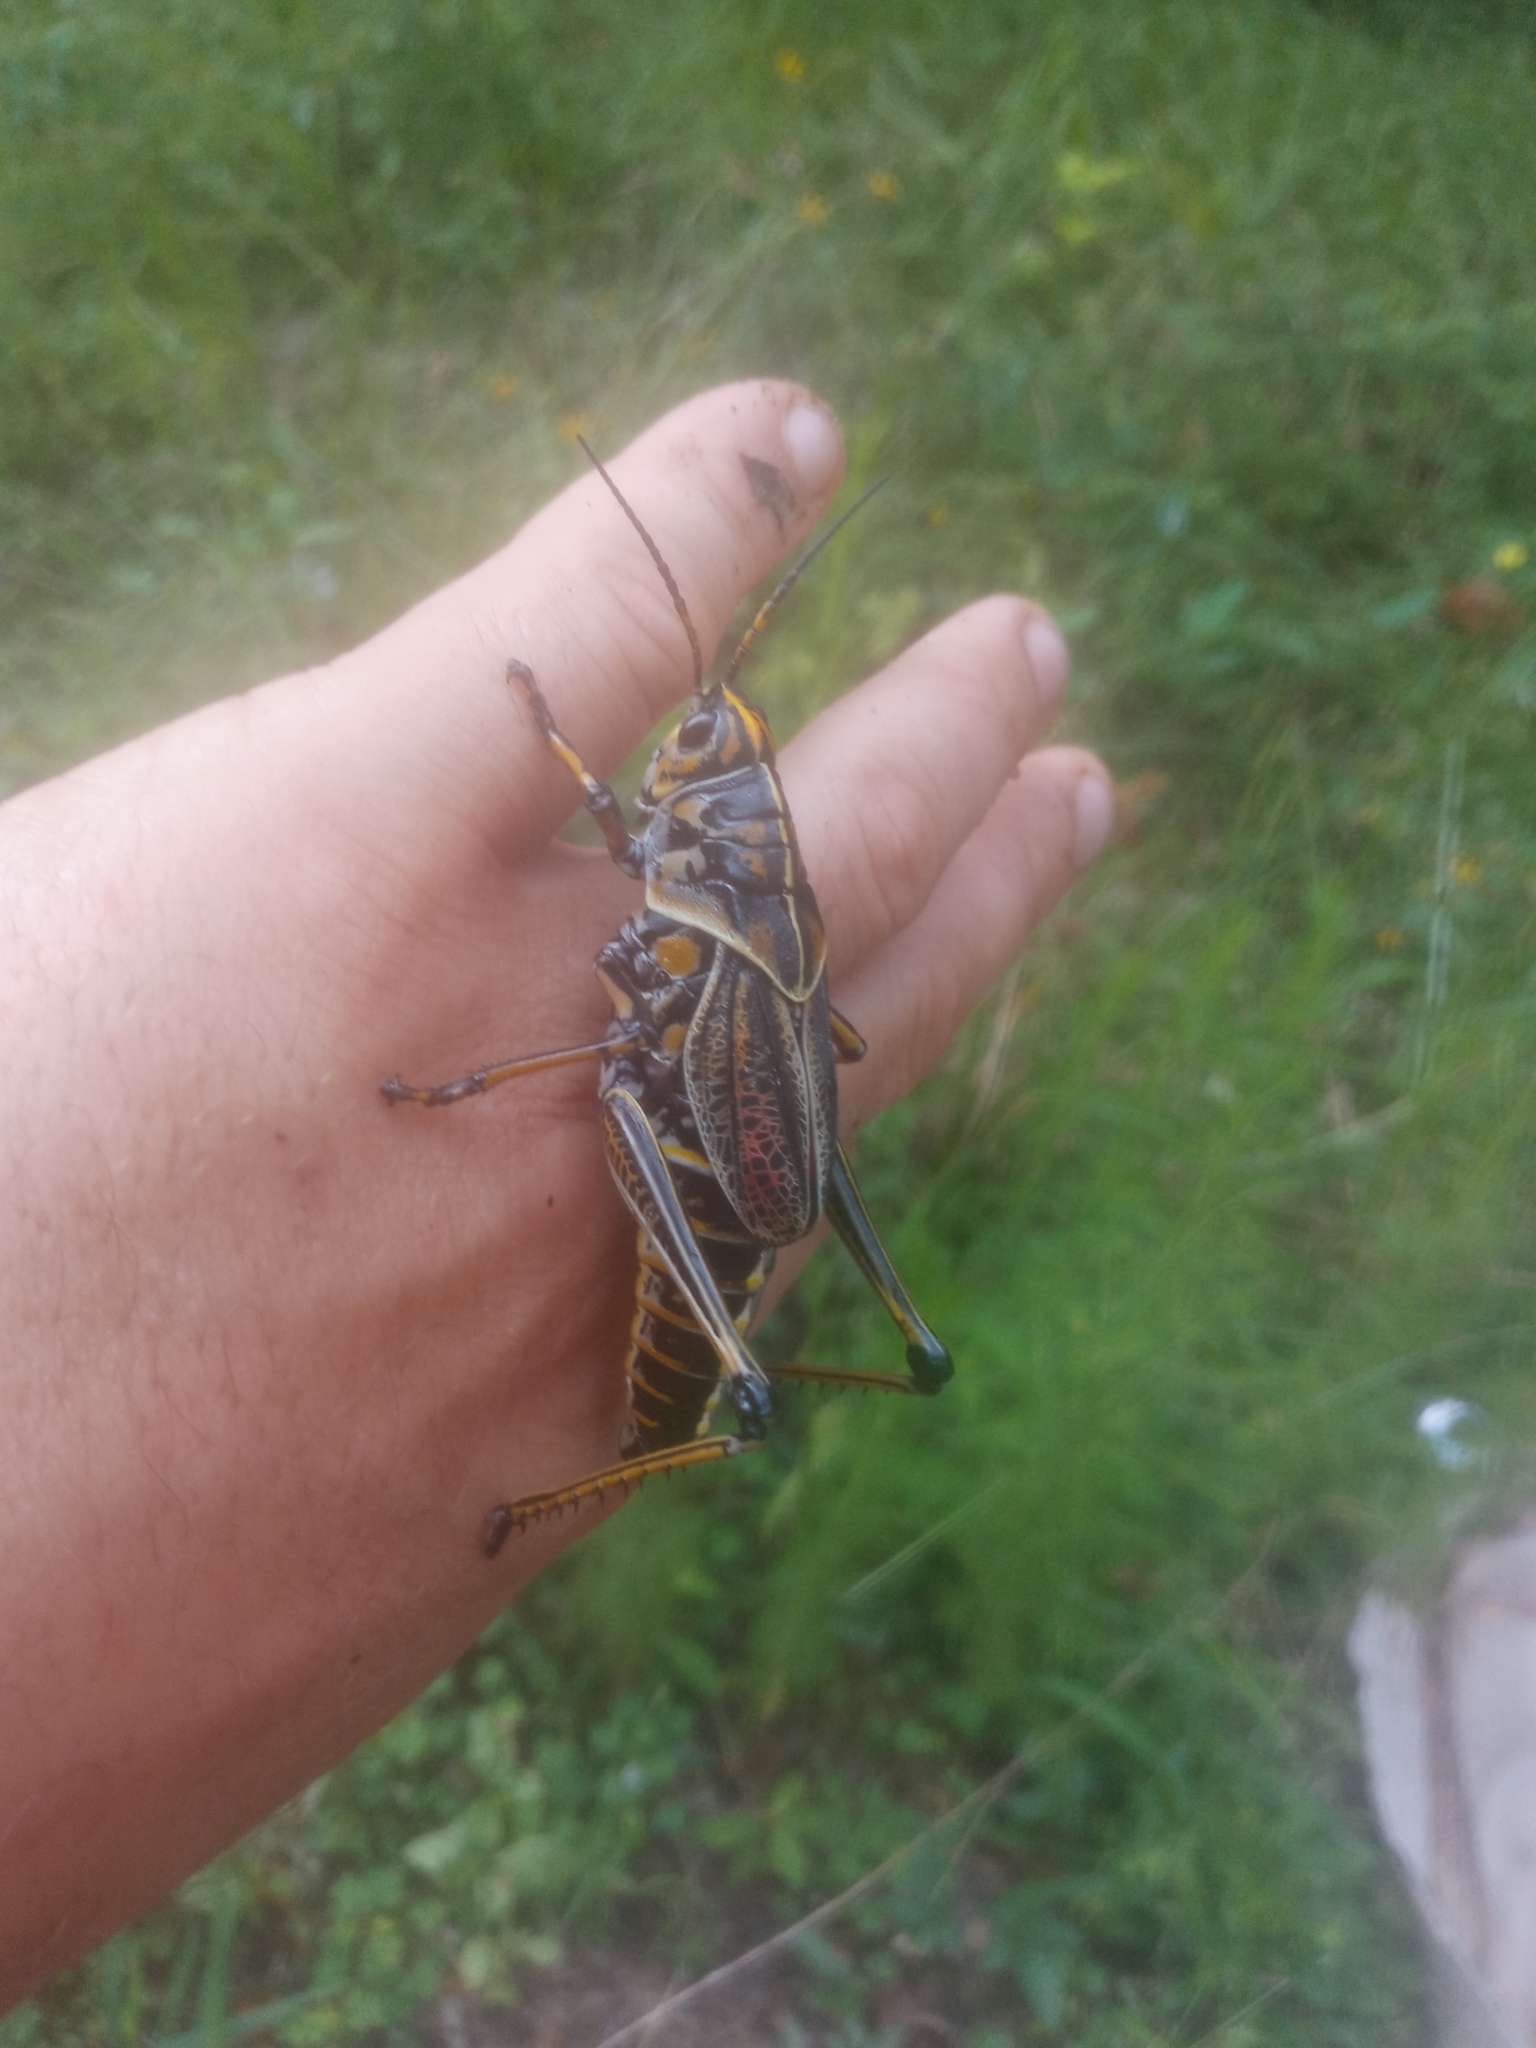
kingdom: Animalia
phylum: Arthropoda
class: Insecta
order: Orthoptera
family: Romaleidae
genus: Romalea
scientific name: Romalea microptera
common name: Eastern lubber grasshopper
